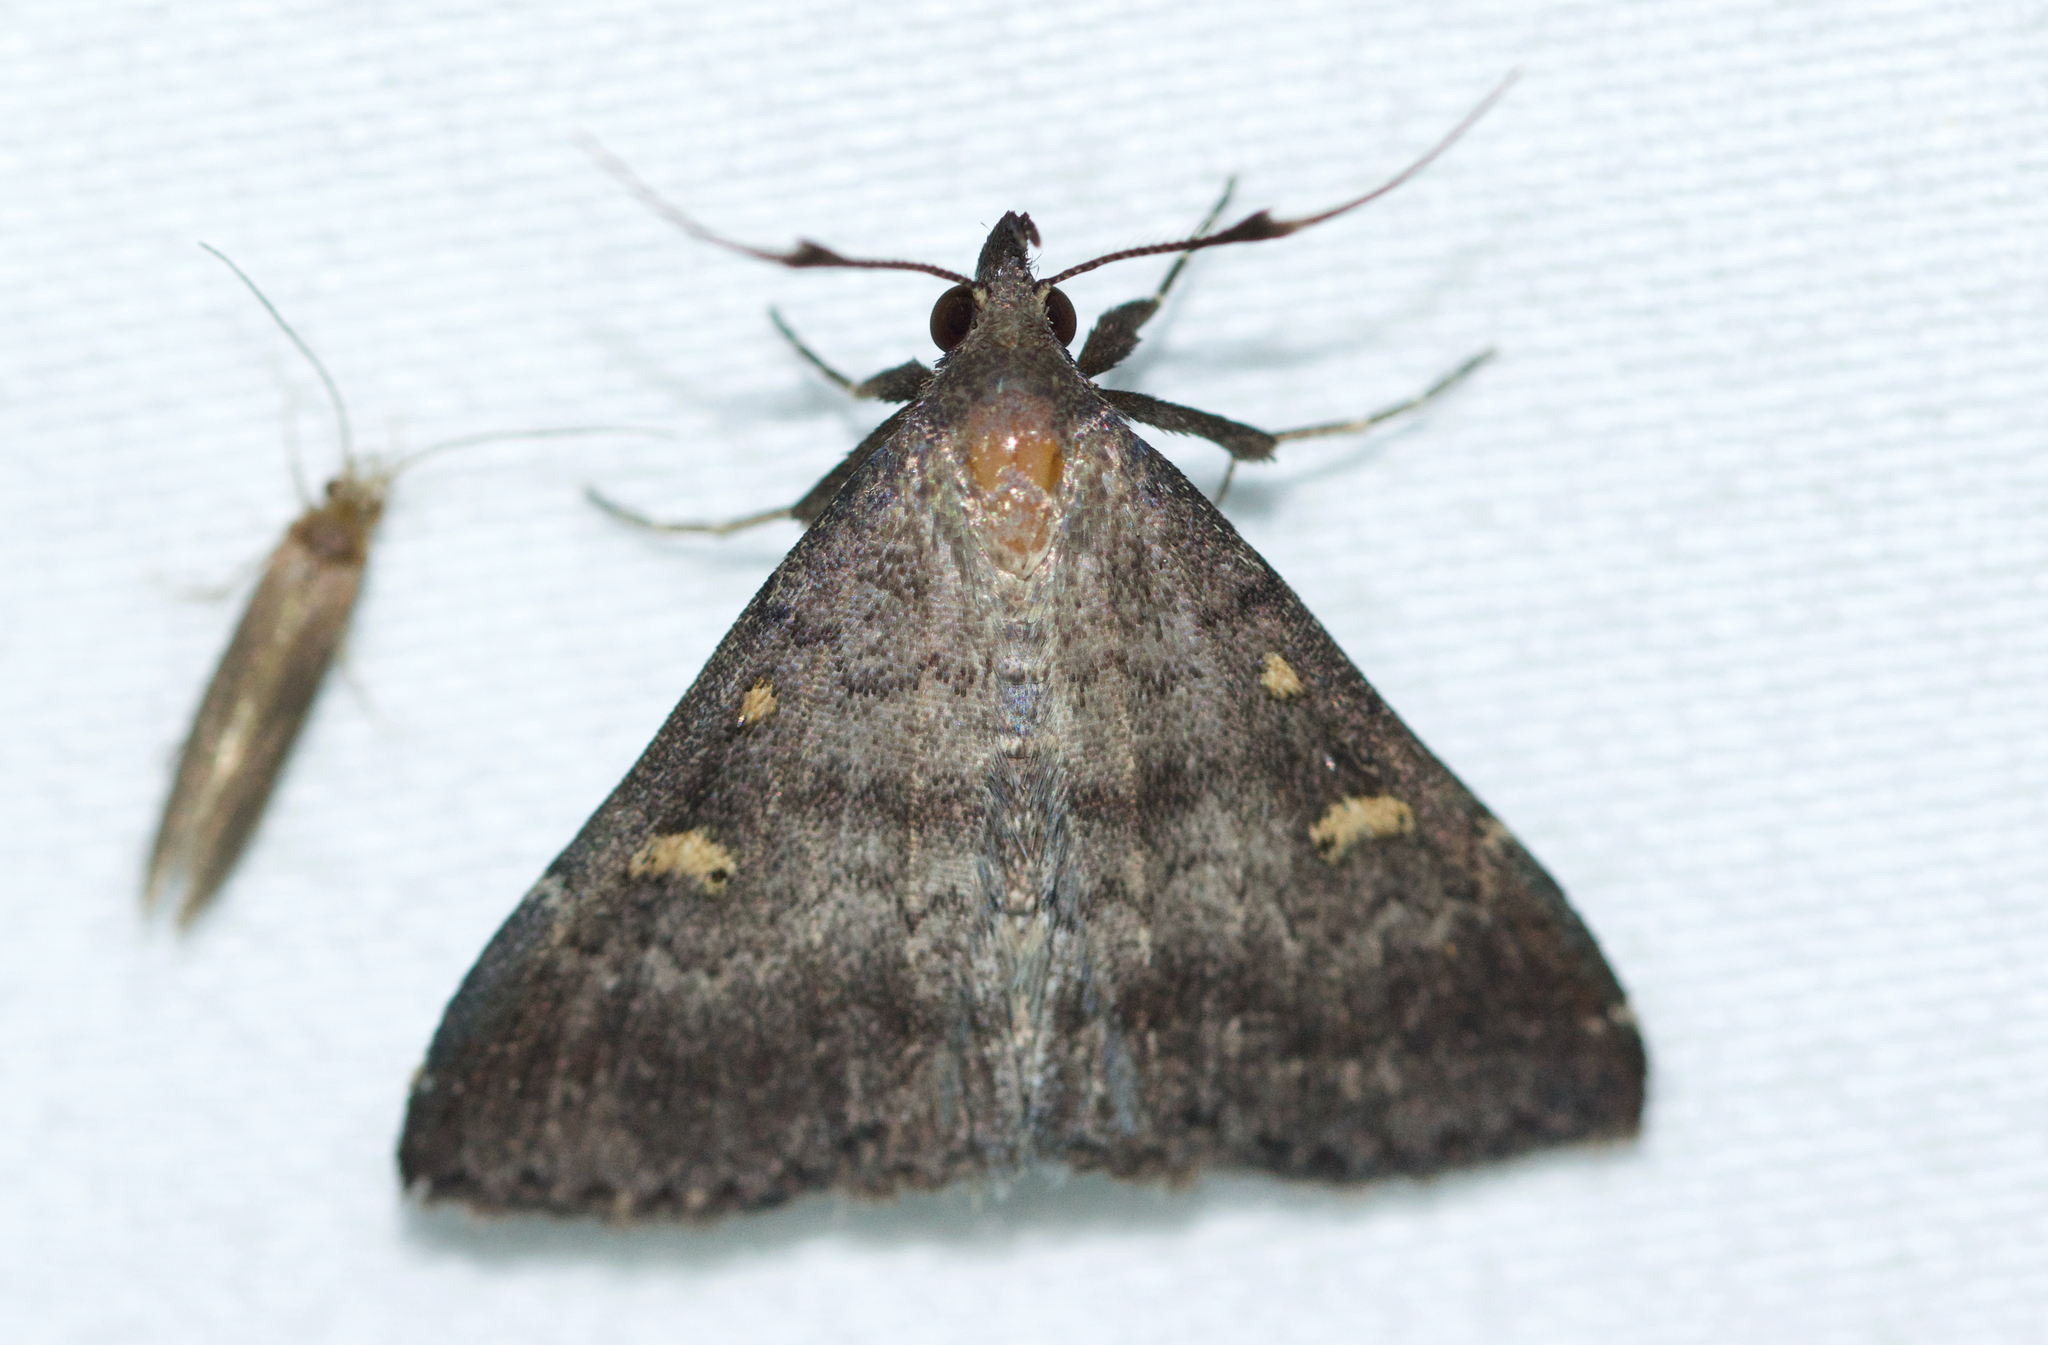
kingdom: Animalia
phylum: Arthropoda
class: Insecta
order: Lepidoptera
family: Erebidae
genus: Renia
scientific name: Renia sobrialis
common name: Sober renia moth
